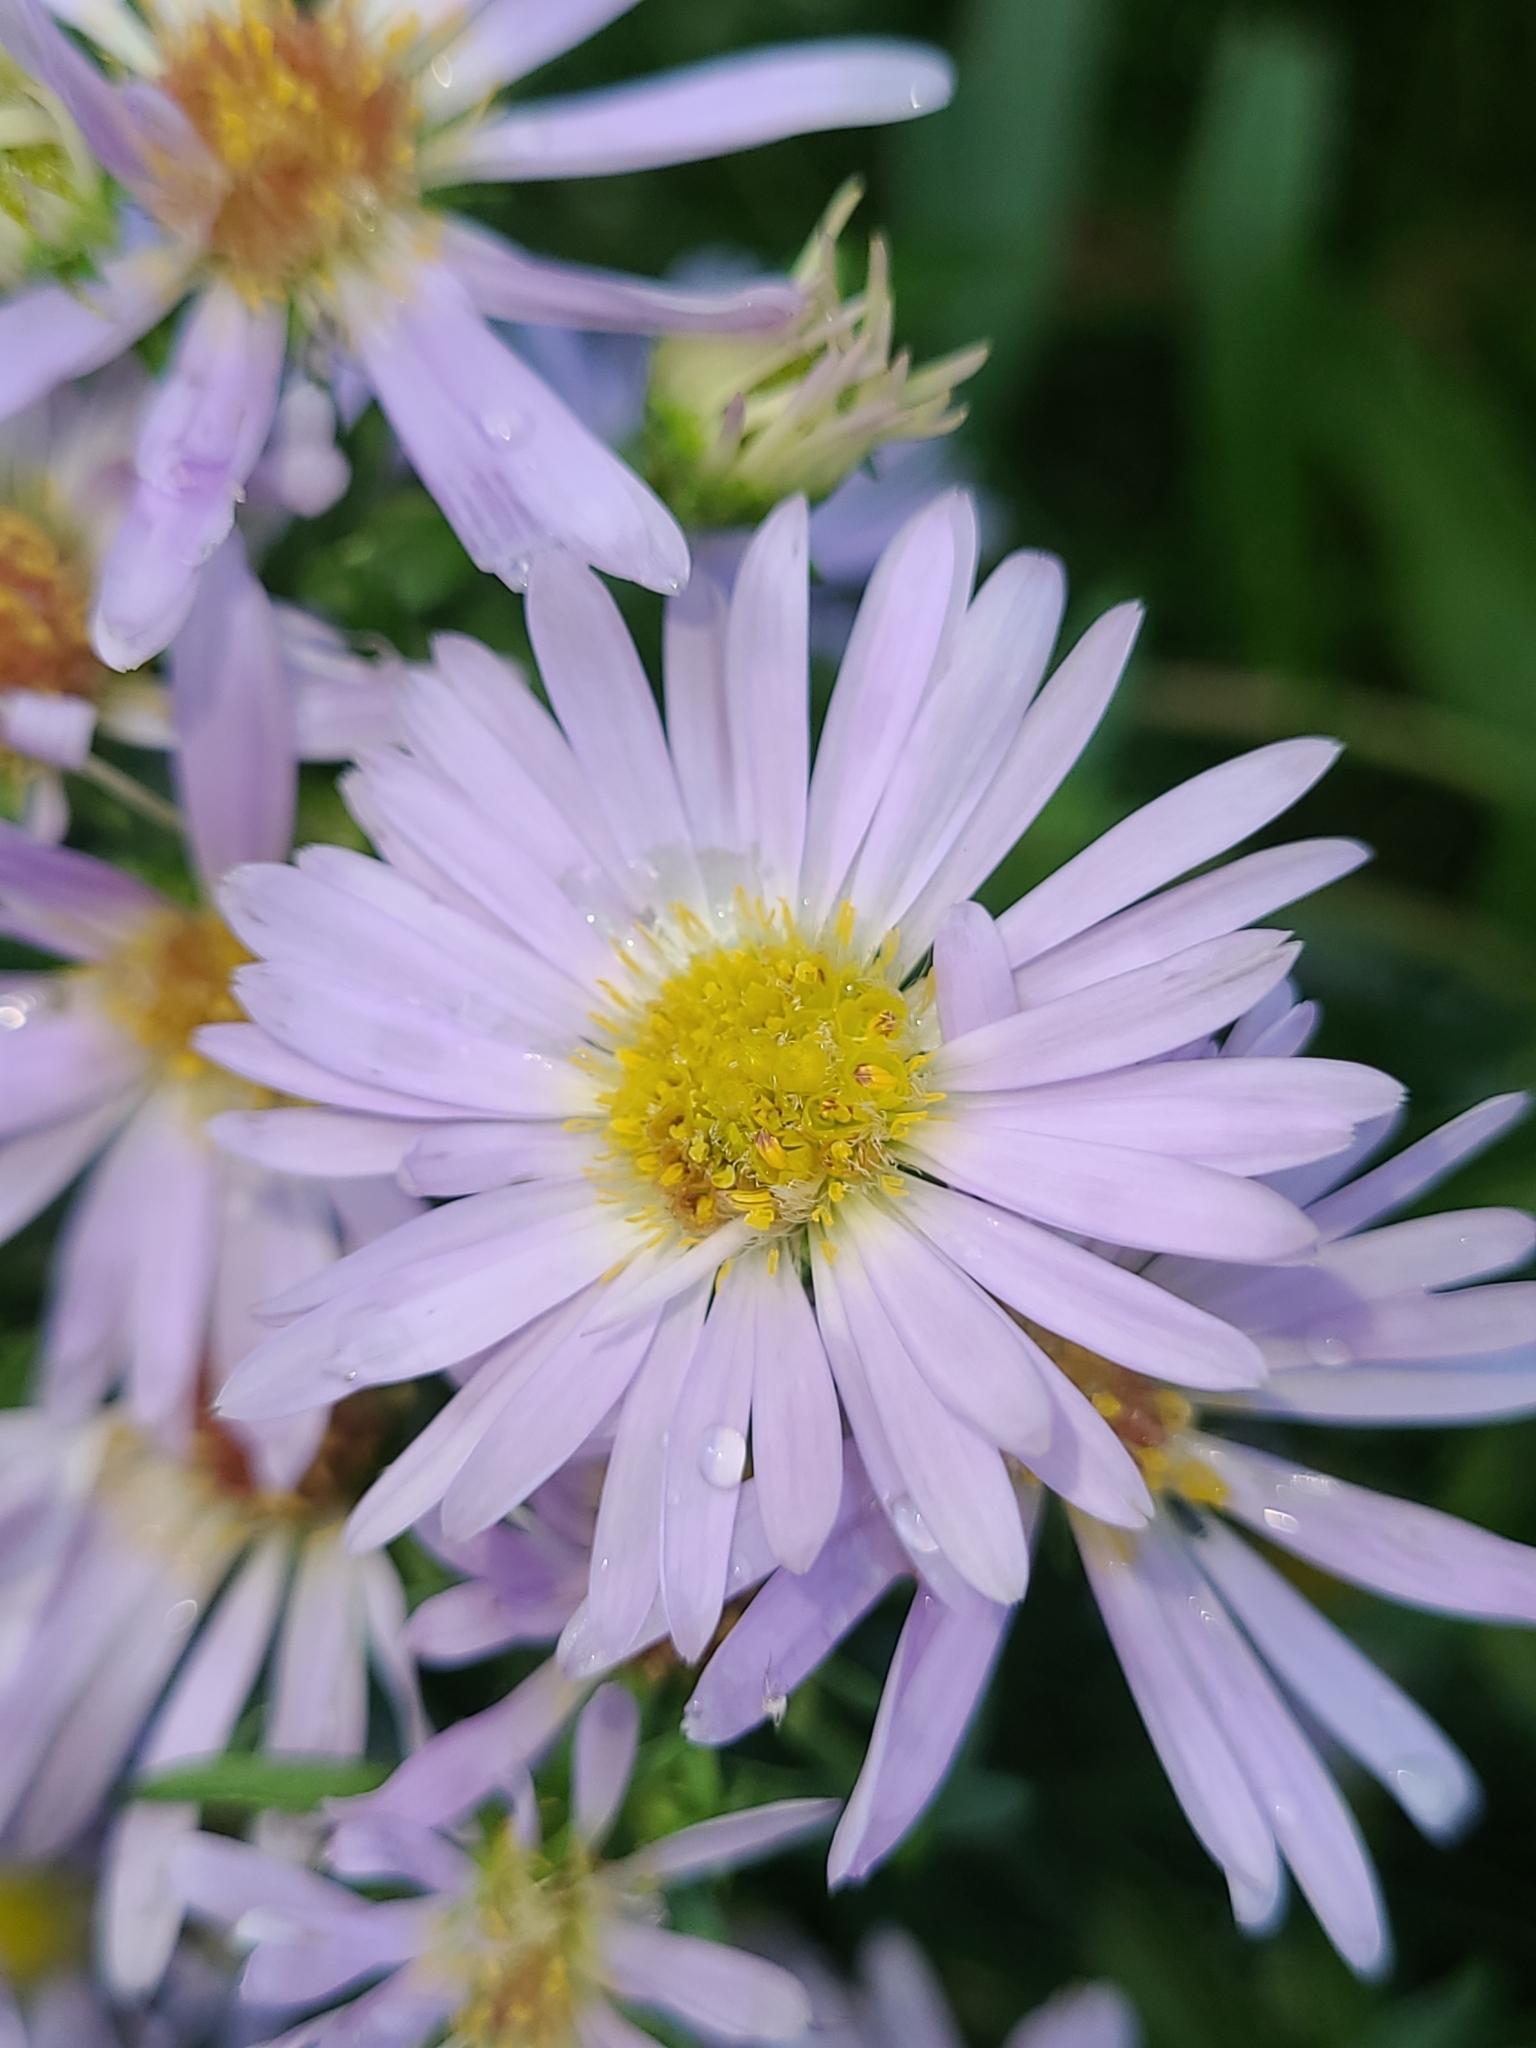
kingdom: Plantae
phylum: Tracheophyta
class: Magnoliopsida
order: Asterales
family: Asteraceae
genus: Symphyotrichum
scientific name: Symphyotrichum novi-belgii
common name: Michaelmas daisy
